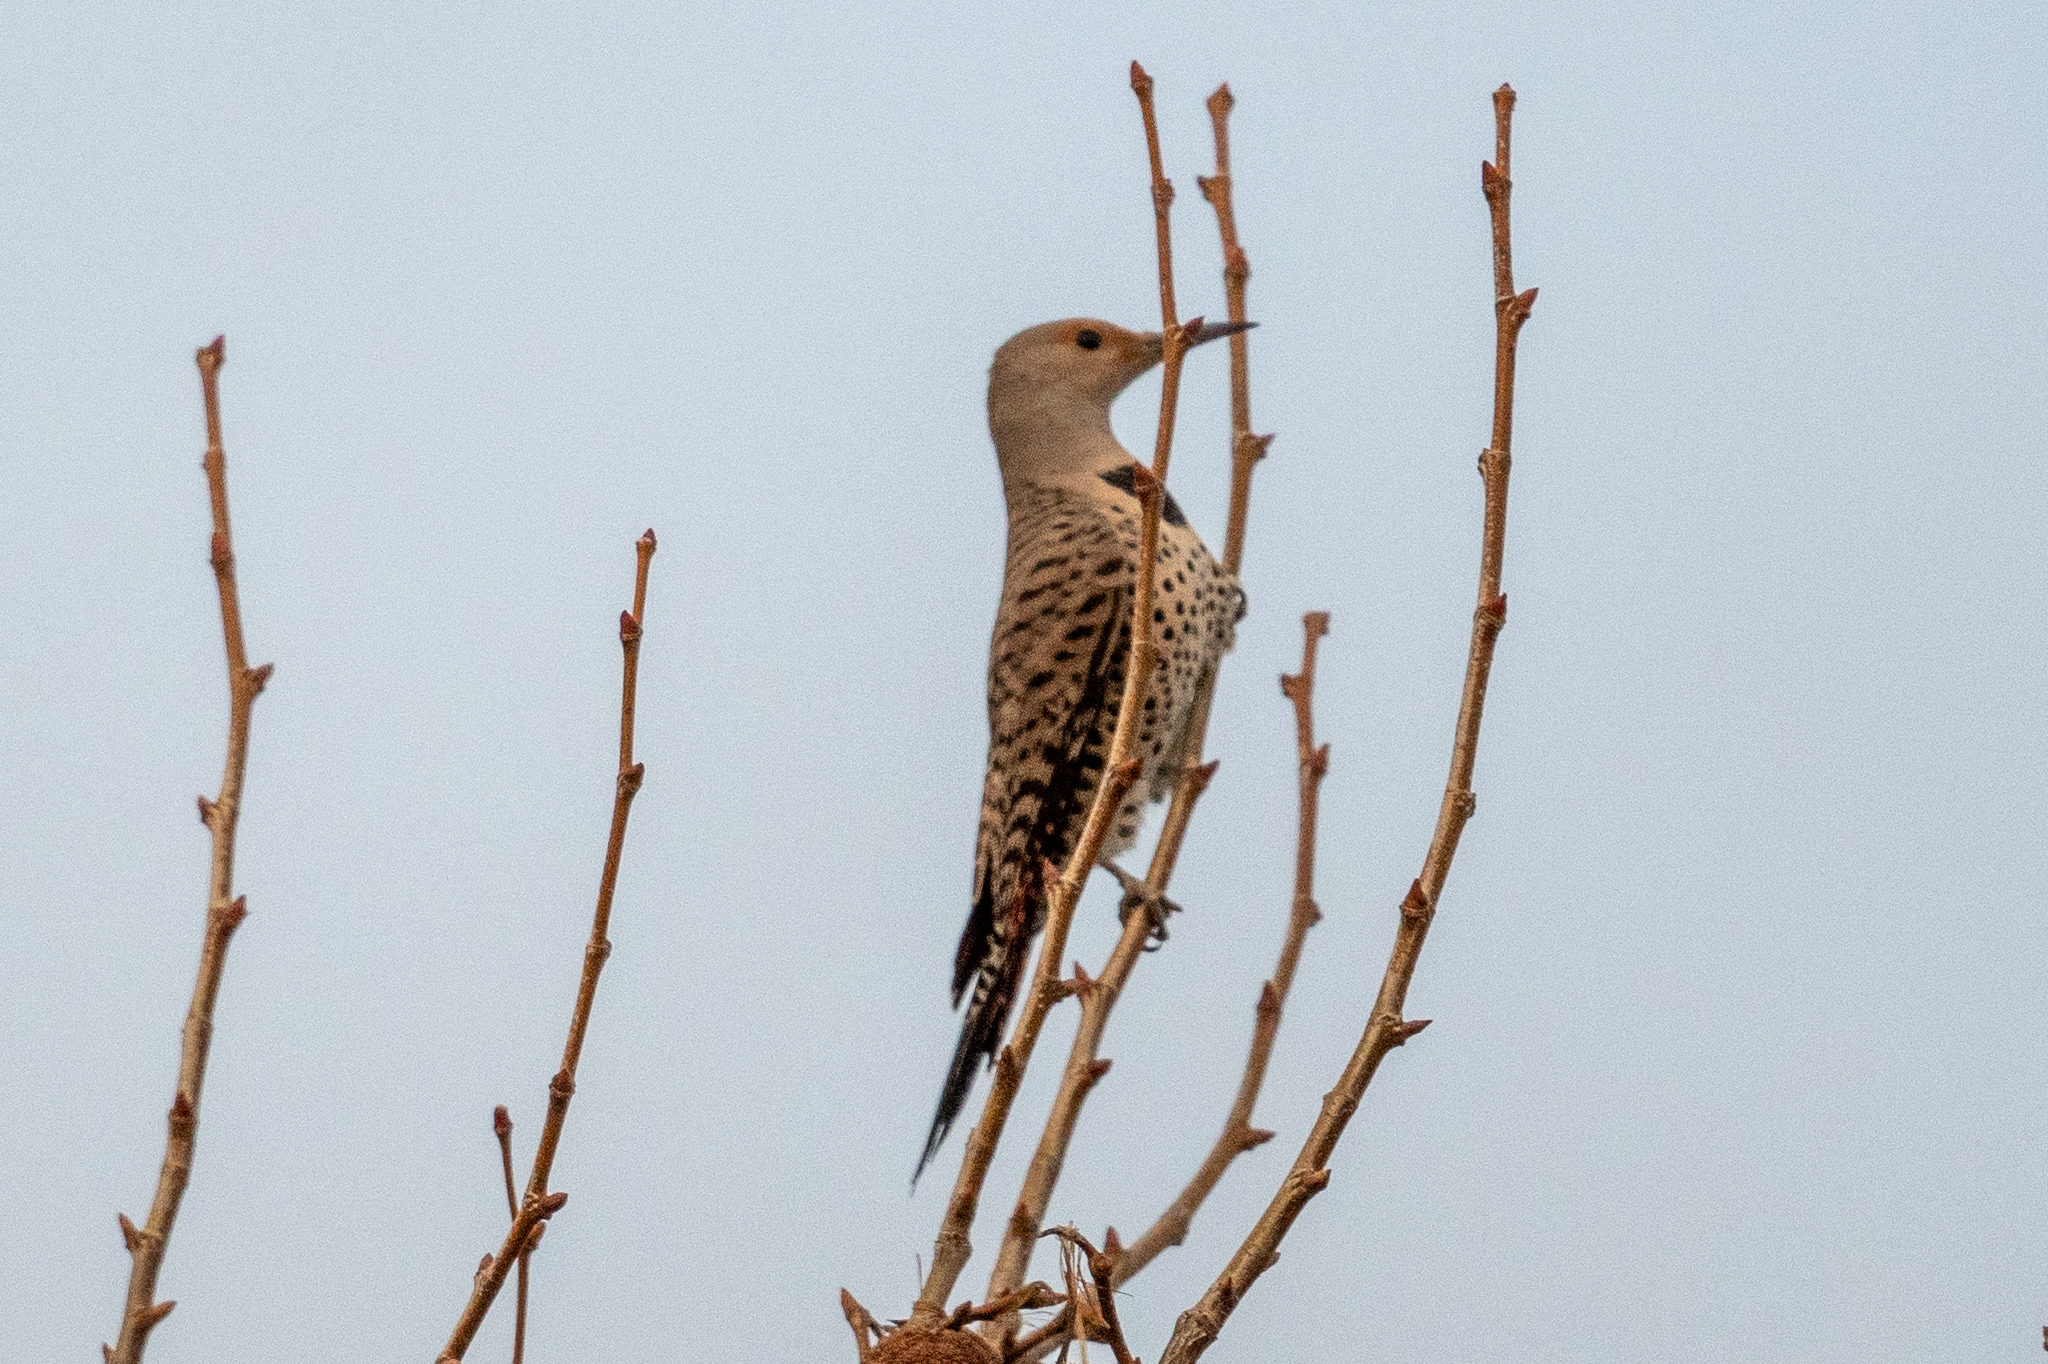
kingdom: Animalia
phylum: Chordata
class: Aves
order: Piciformes
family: Picidae
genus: Colaptes
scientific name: Colaptes auratus
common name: Northern flicker
